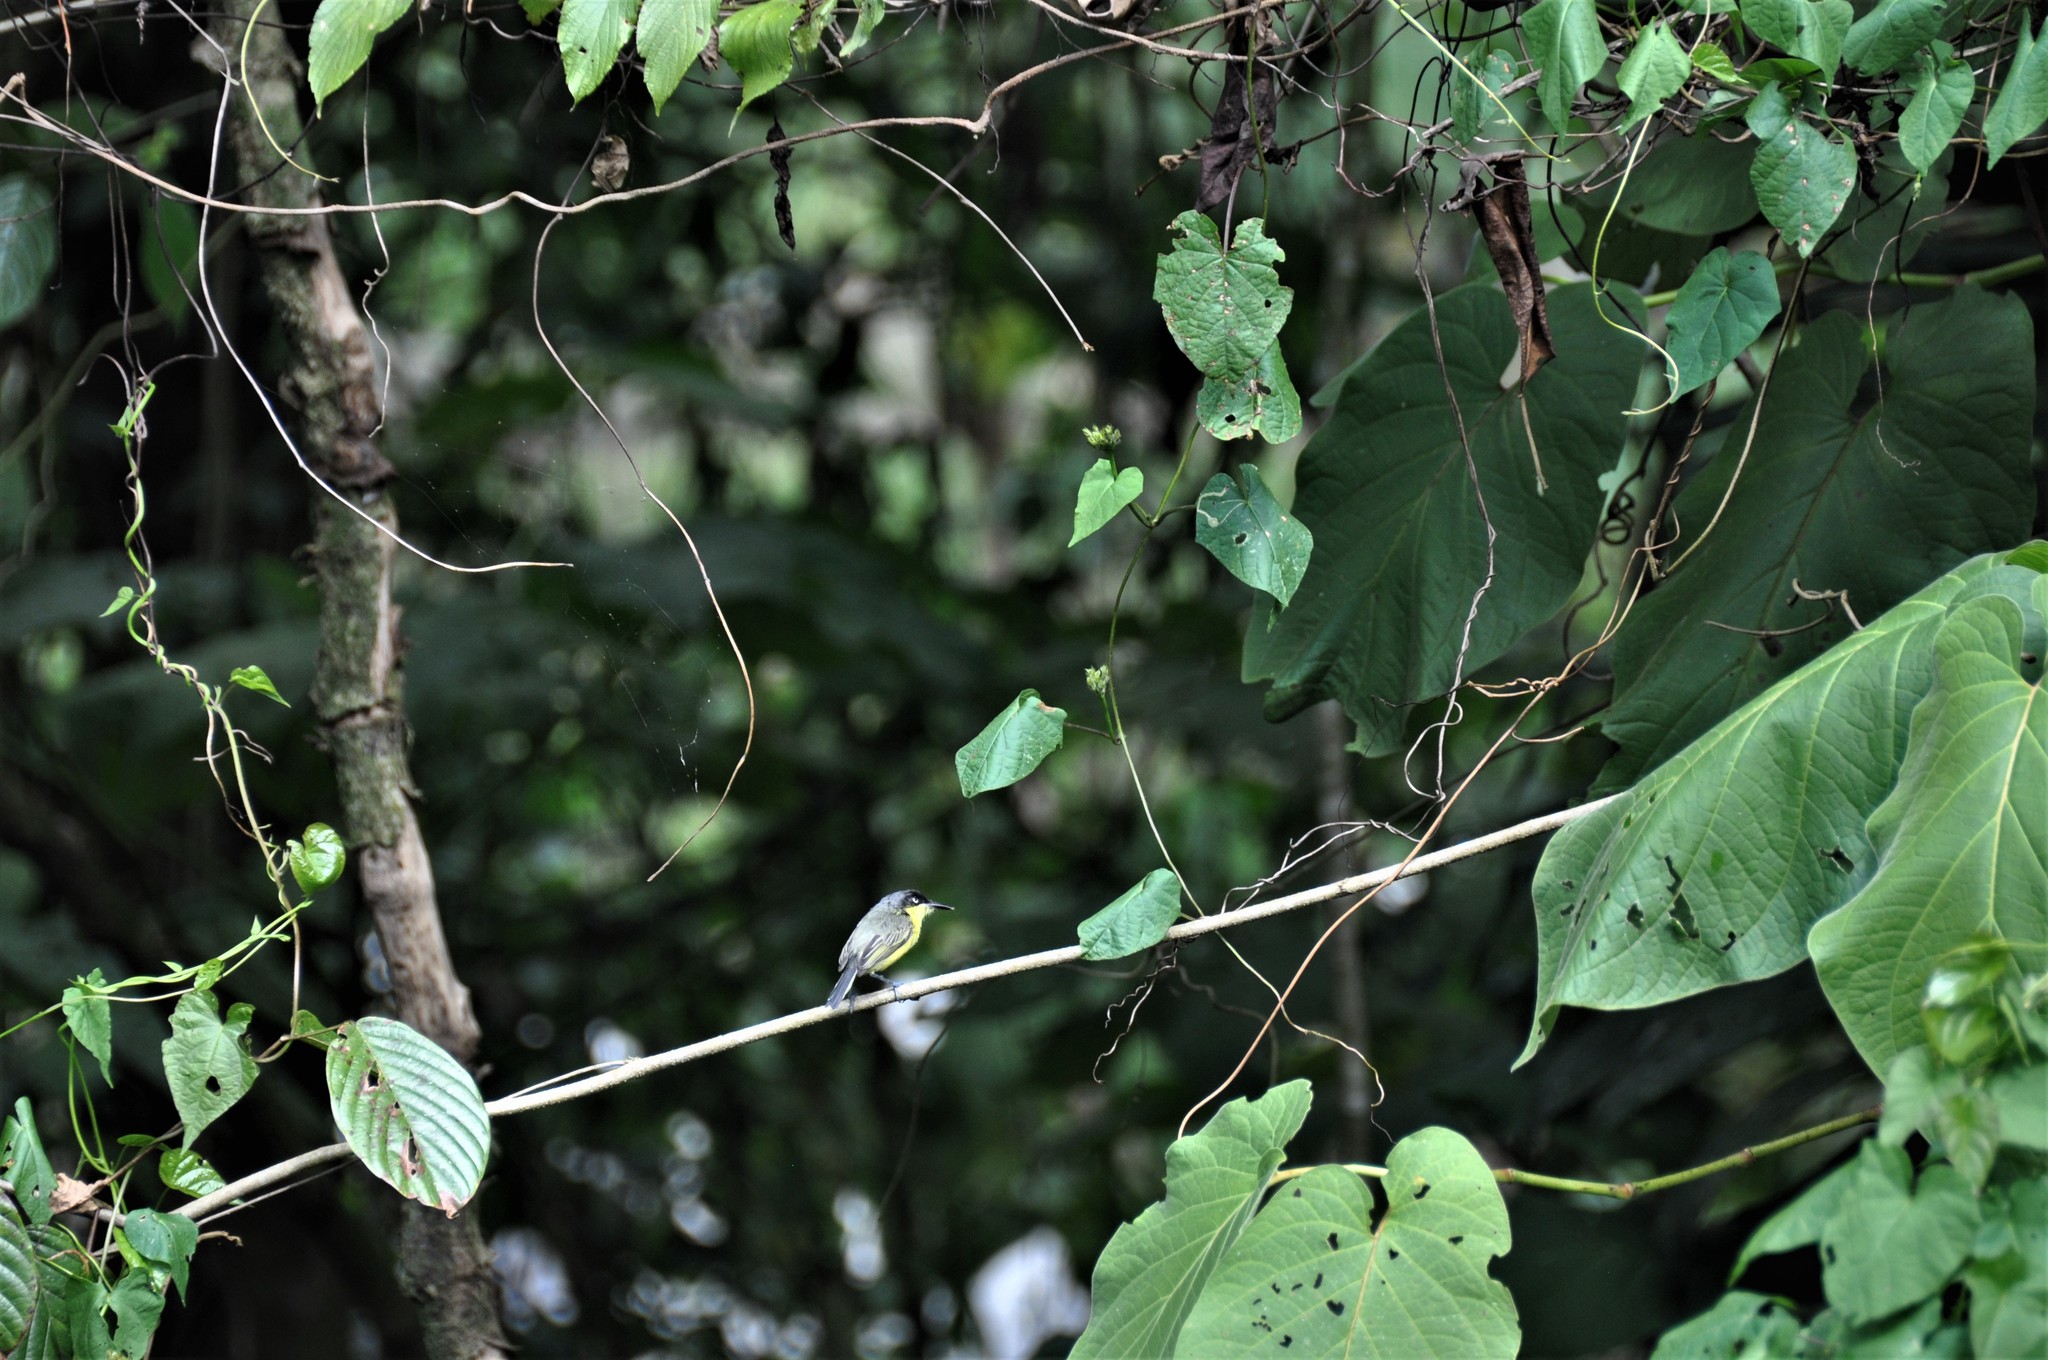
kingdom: Animalia
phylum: Chordata
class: Aves
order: Passeriformes
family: Tyrannidae
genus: Todirostrum
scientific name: Todirostrum cinereum
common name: Common tody-flycatcher
